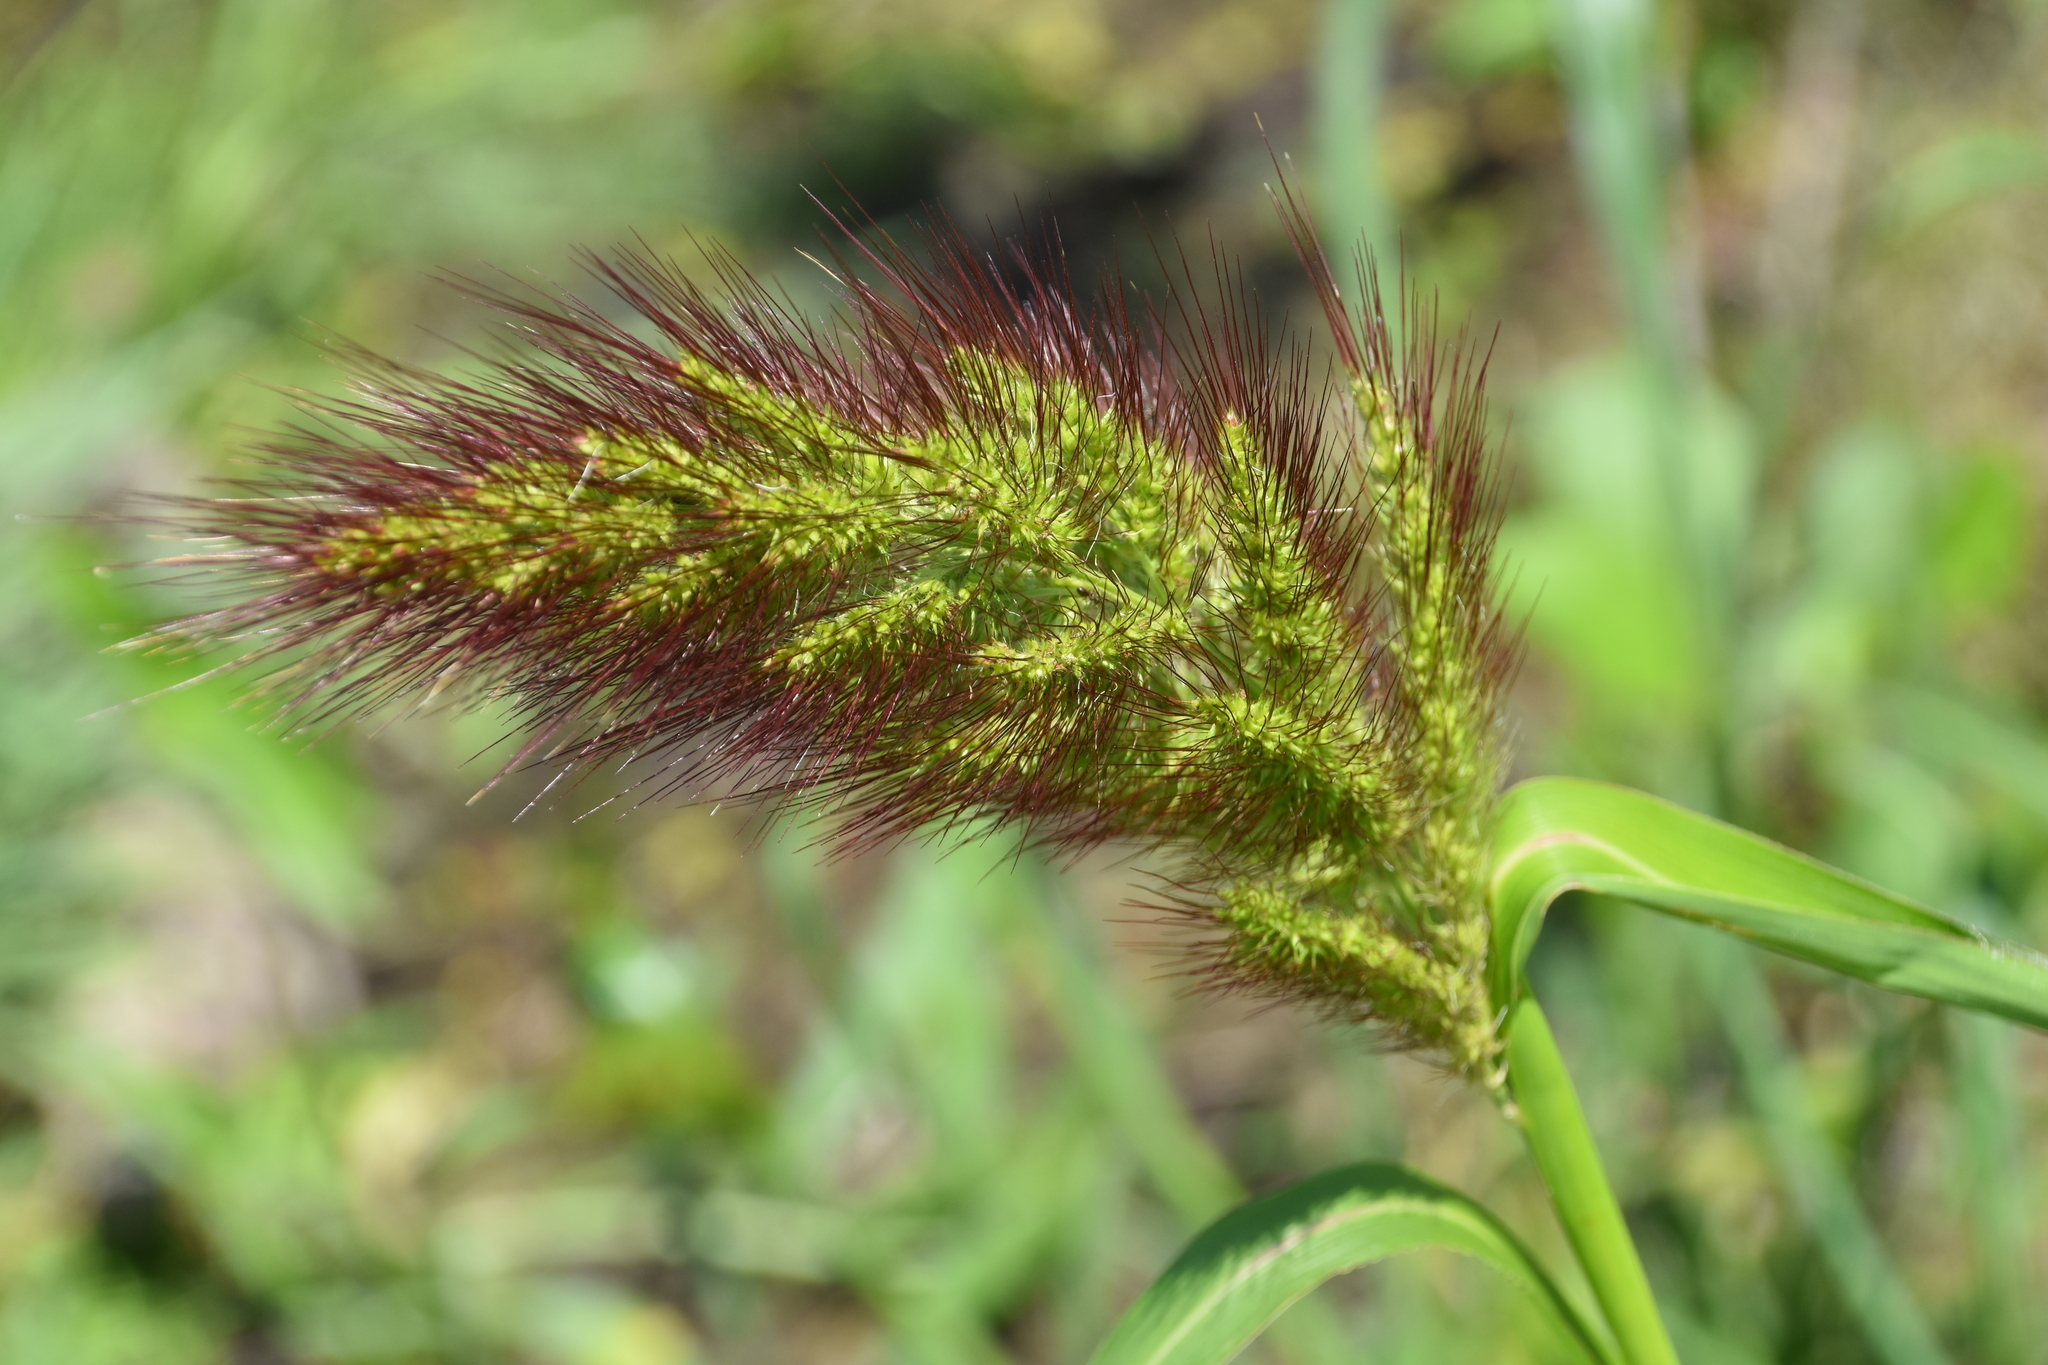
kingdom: Plantae
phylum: Tracheophyta
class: Liliopsida
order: Poales
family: Poaceae
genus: Echinochloa
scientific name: Echinochloa walteri
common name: Coast barnyard grass
